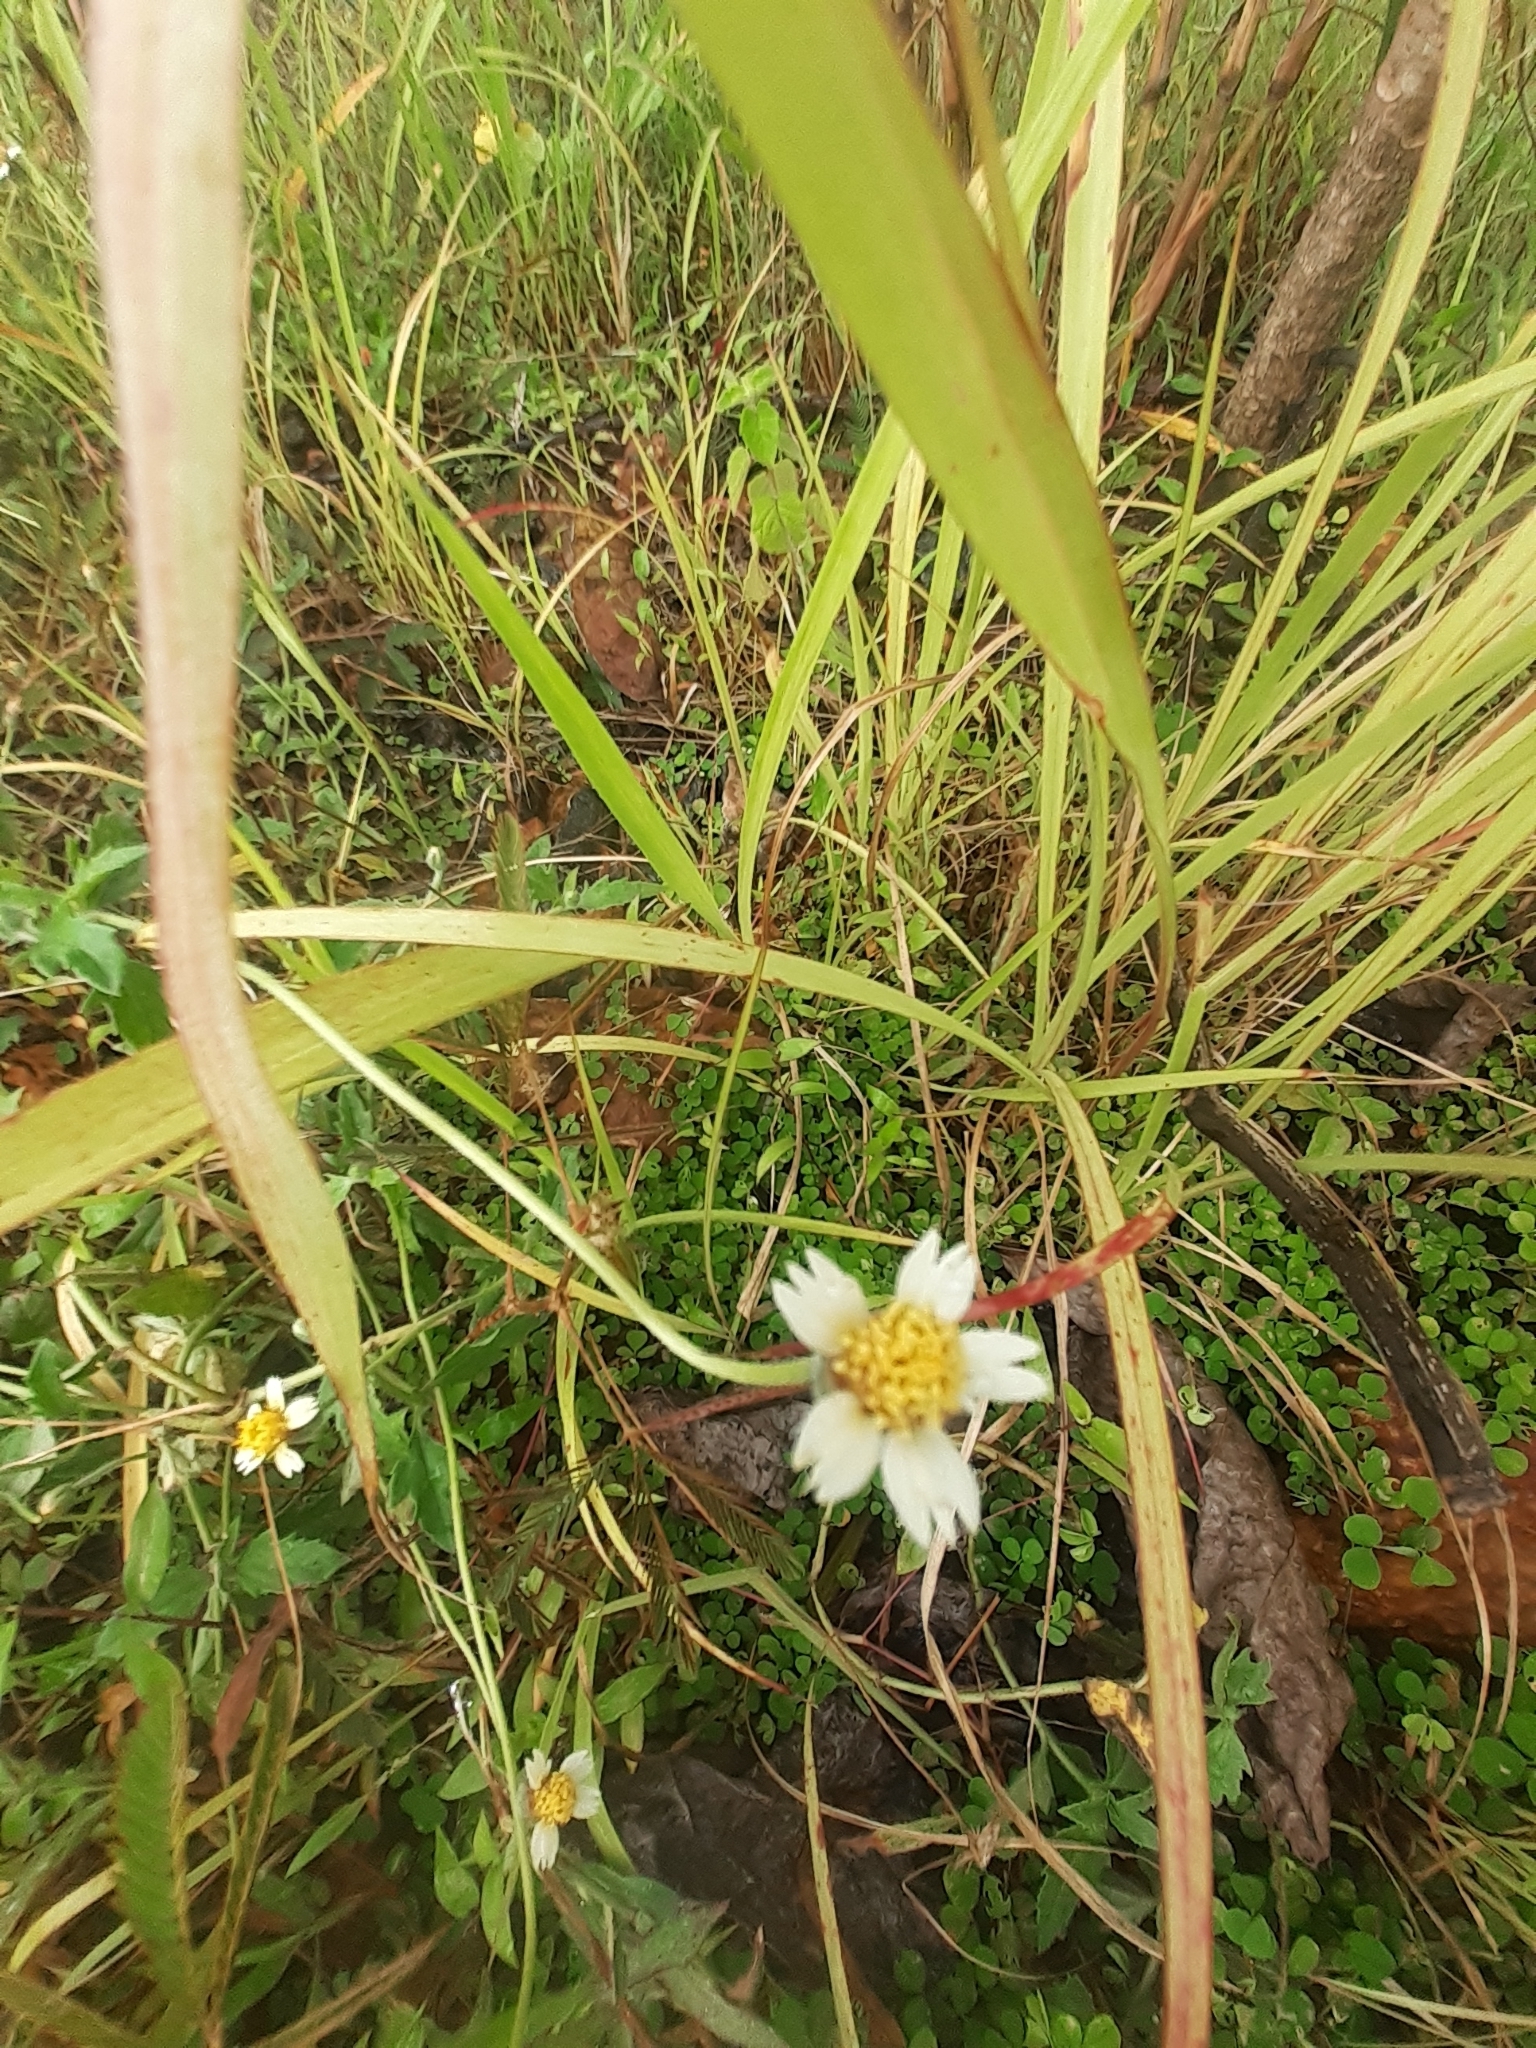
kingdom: Plantae
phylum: Tracheophyta
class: Magnoliopsida
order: Asterales
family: Asteraceae
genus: Tridax
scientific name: Tridax procumbens
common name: Coatbuttons
